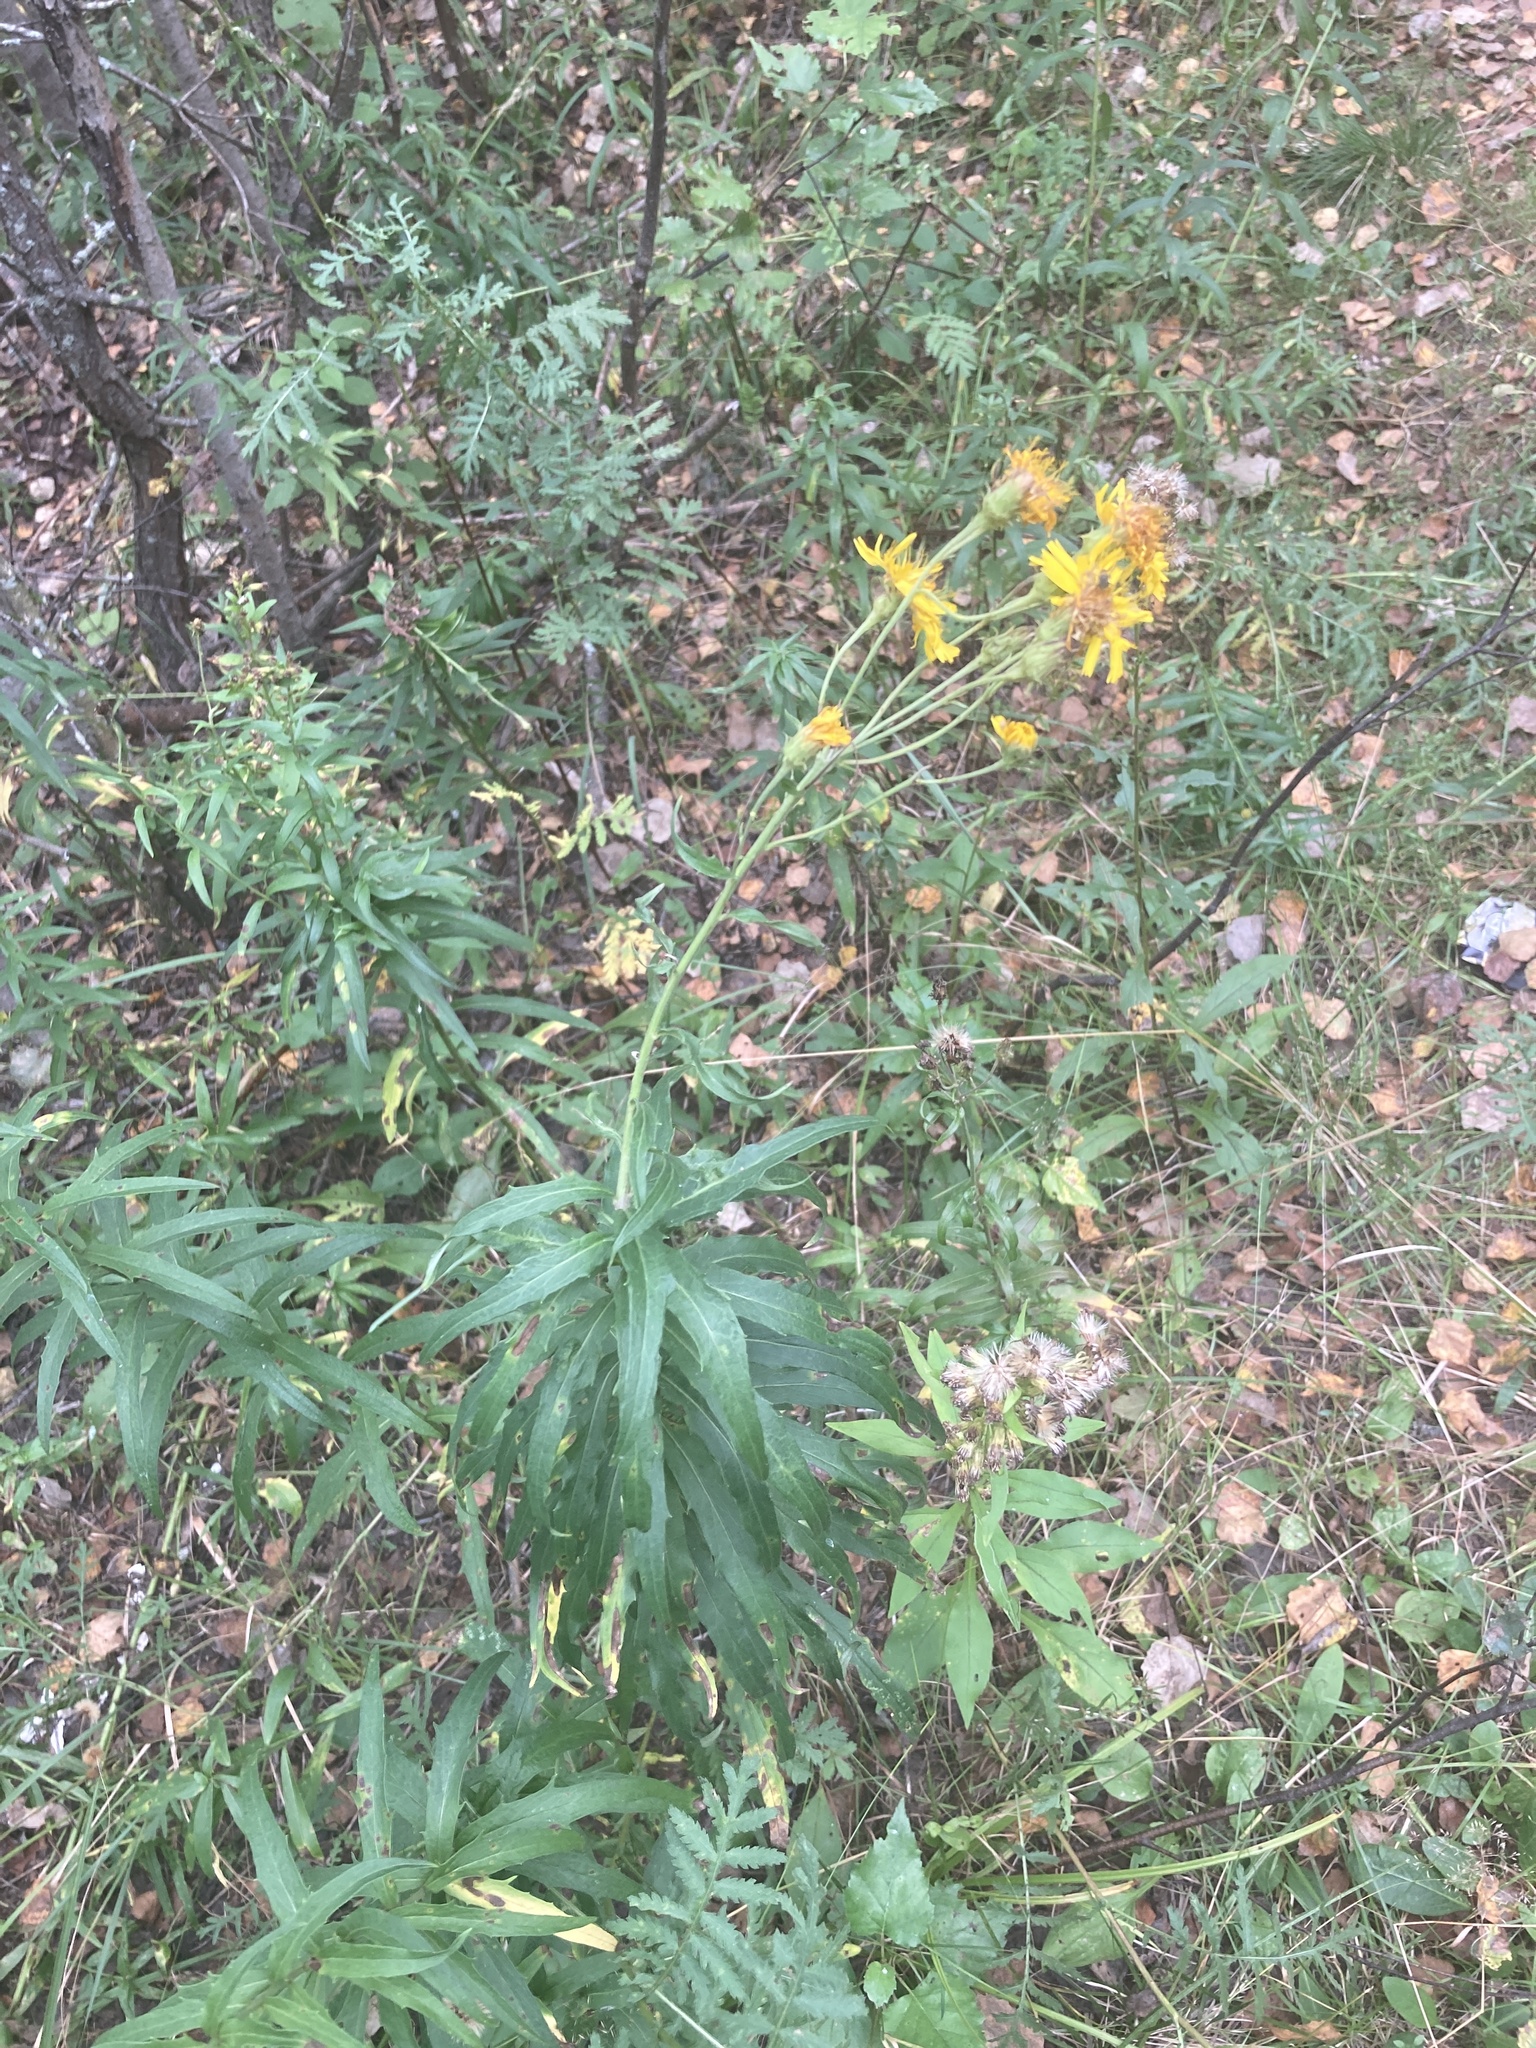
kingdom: Plantae
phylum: Tracheophyta
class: Magnoliopsida
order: Asterales
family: Asteraceae
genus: Hieracium
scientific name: Hieracium umbellatum
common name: Northern hawkweed
